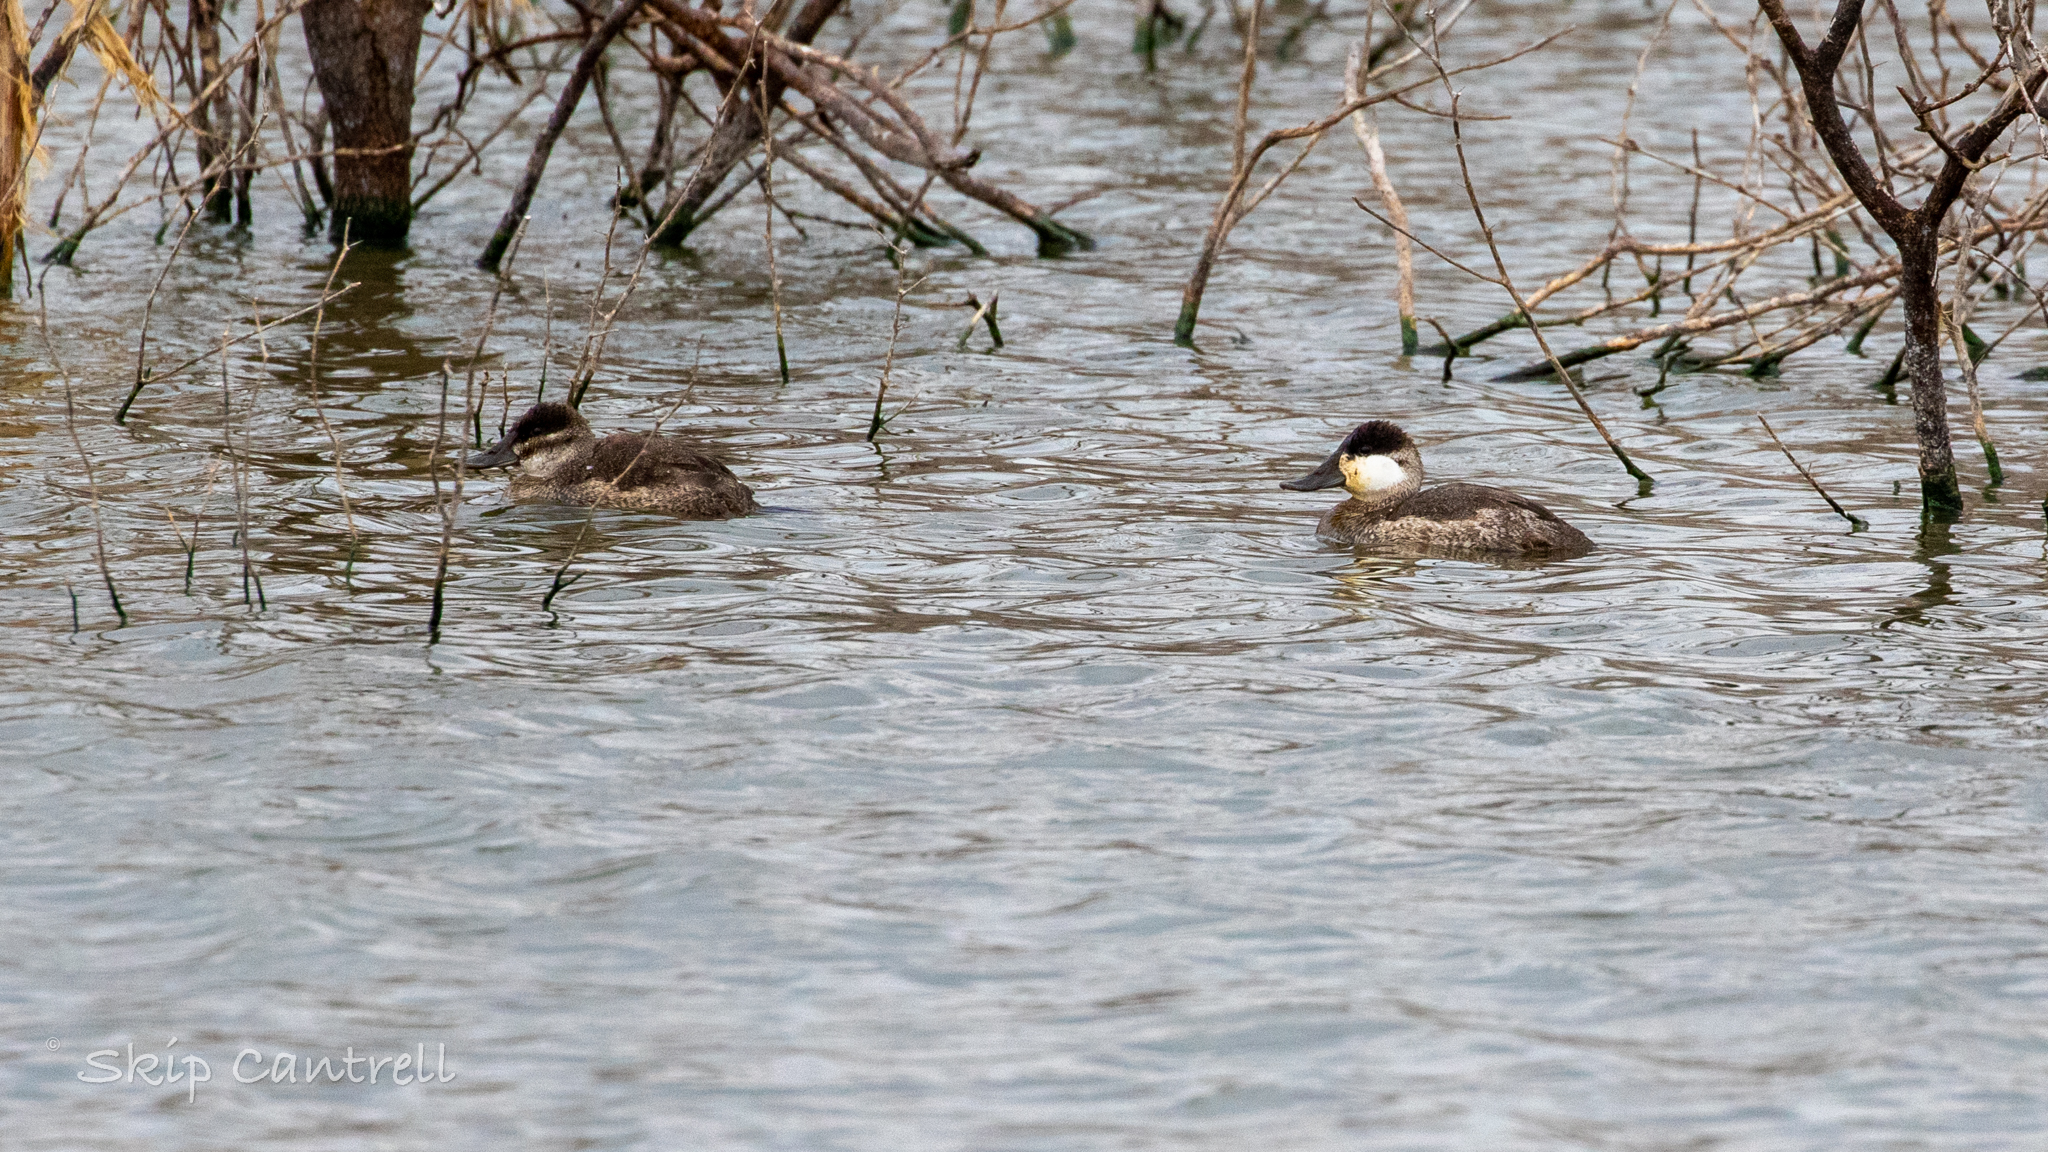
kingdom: Animalia
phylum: Chordata
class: Aves
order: Anseriformes
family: Anatidae
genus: Oxyura
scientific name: Oxyura jamaicensis
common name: Ruddy duck
